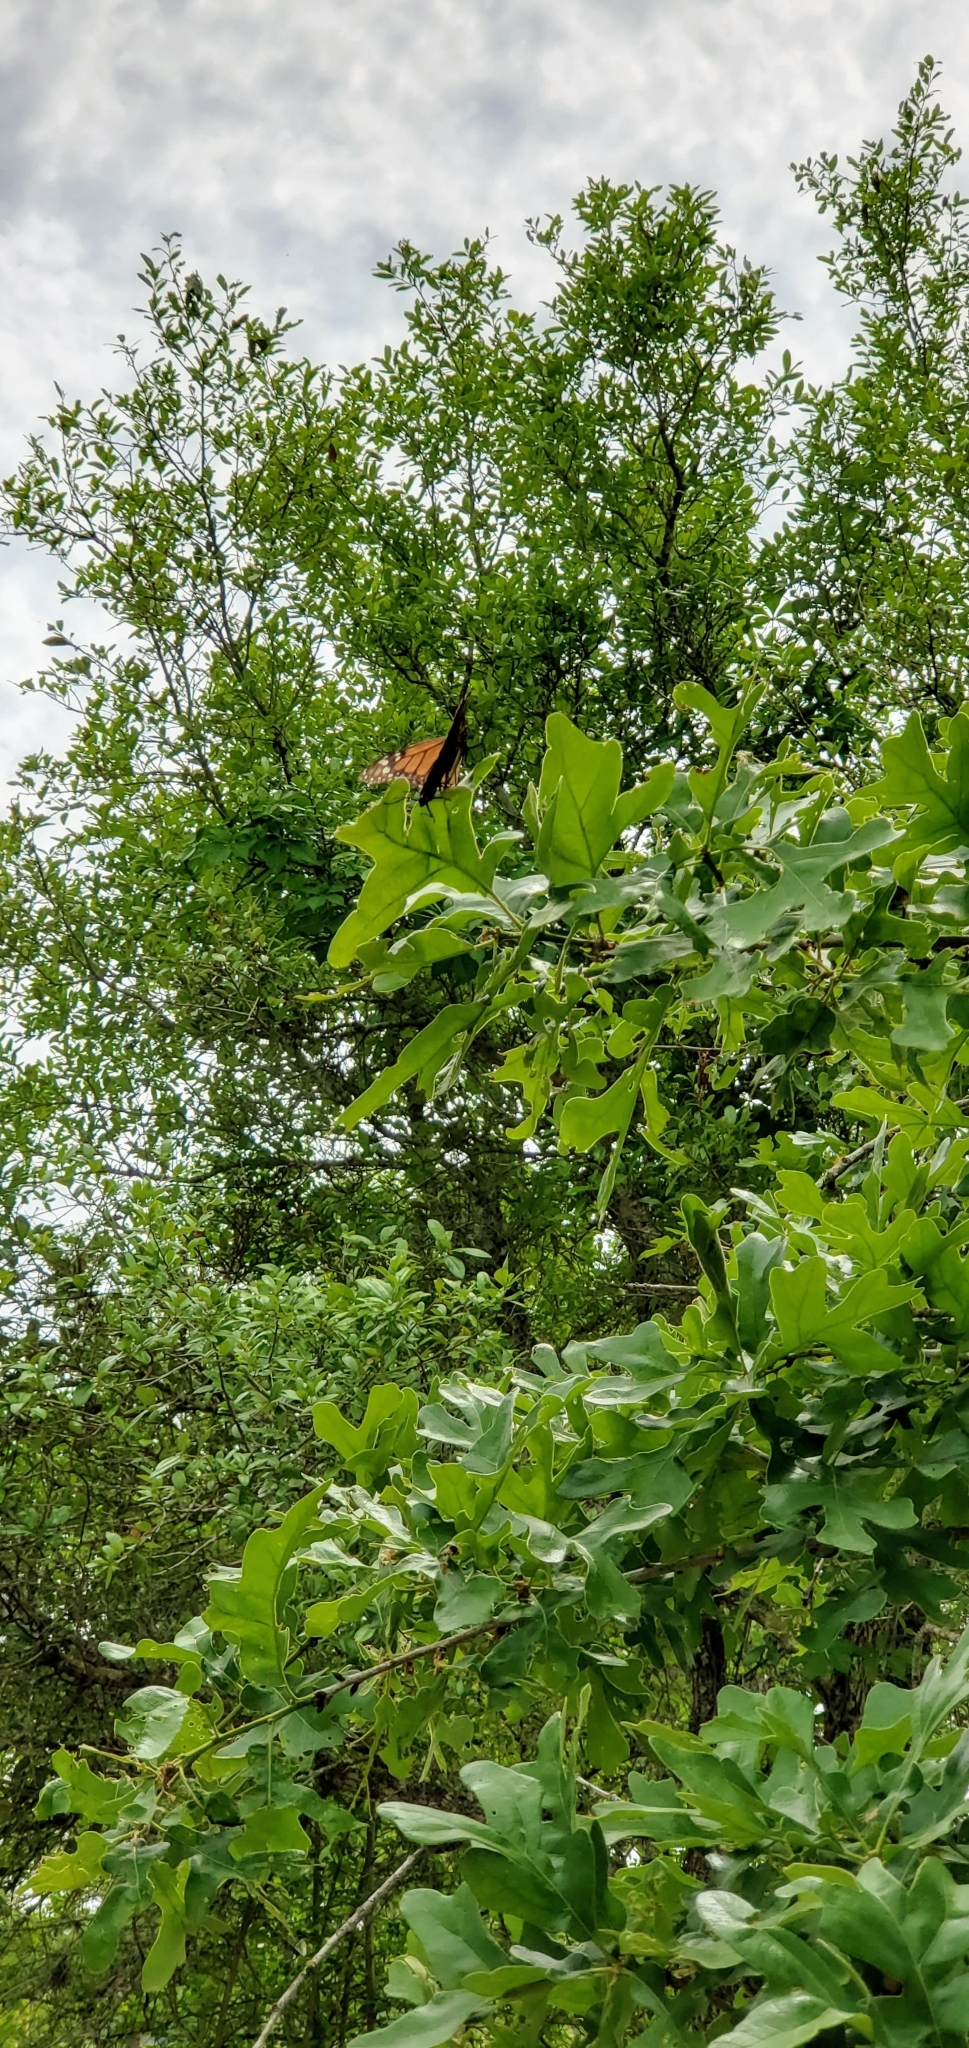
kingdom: Animalia
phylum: Arthropoda
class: Insecta
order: Lepidoptera
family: Nymphalidae
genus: Danaus
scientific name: Danaus plexippus
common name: Monarch
